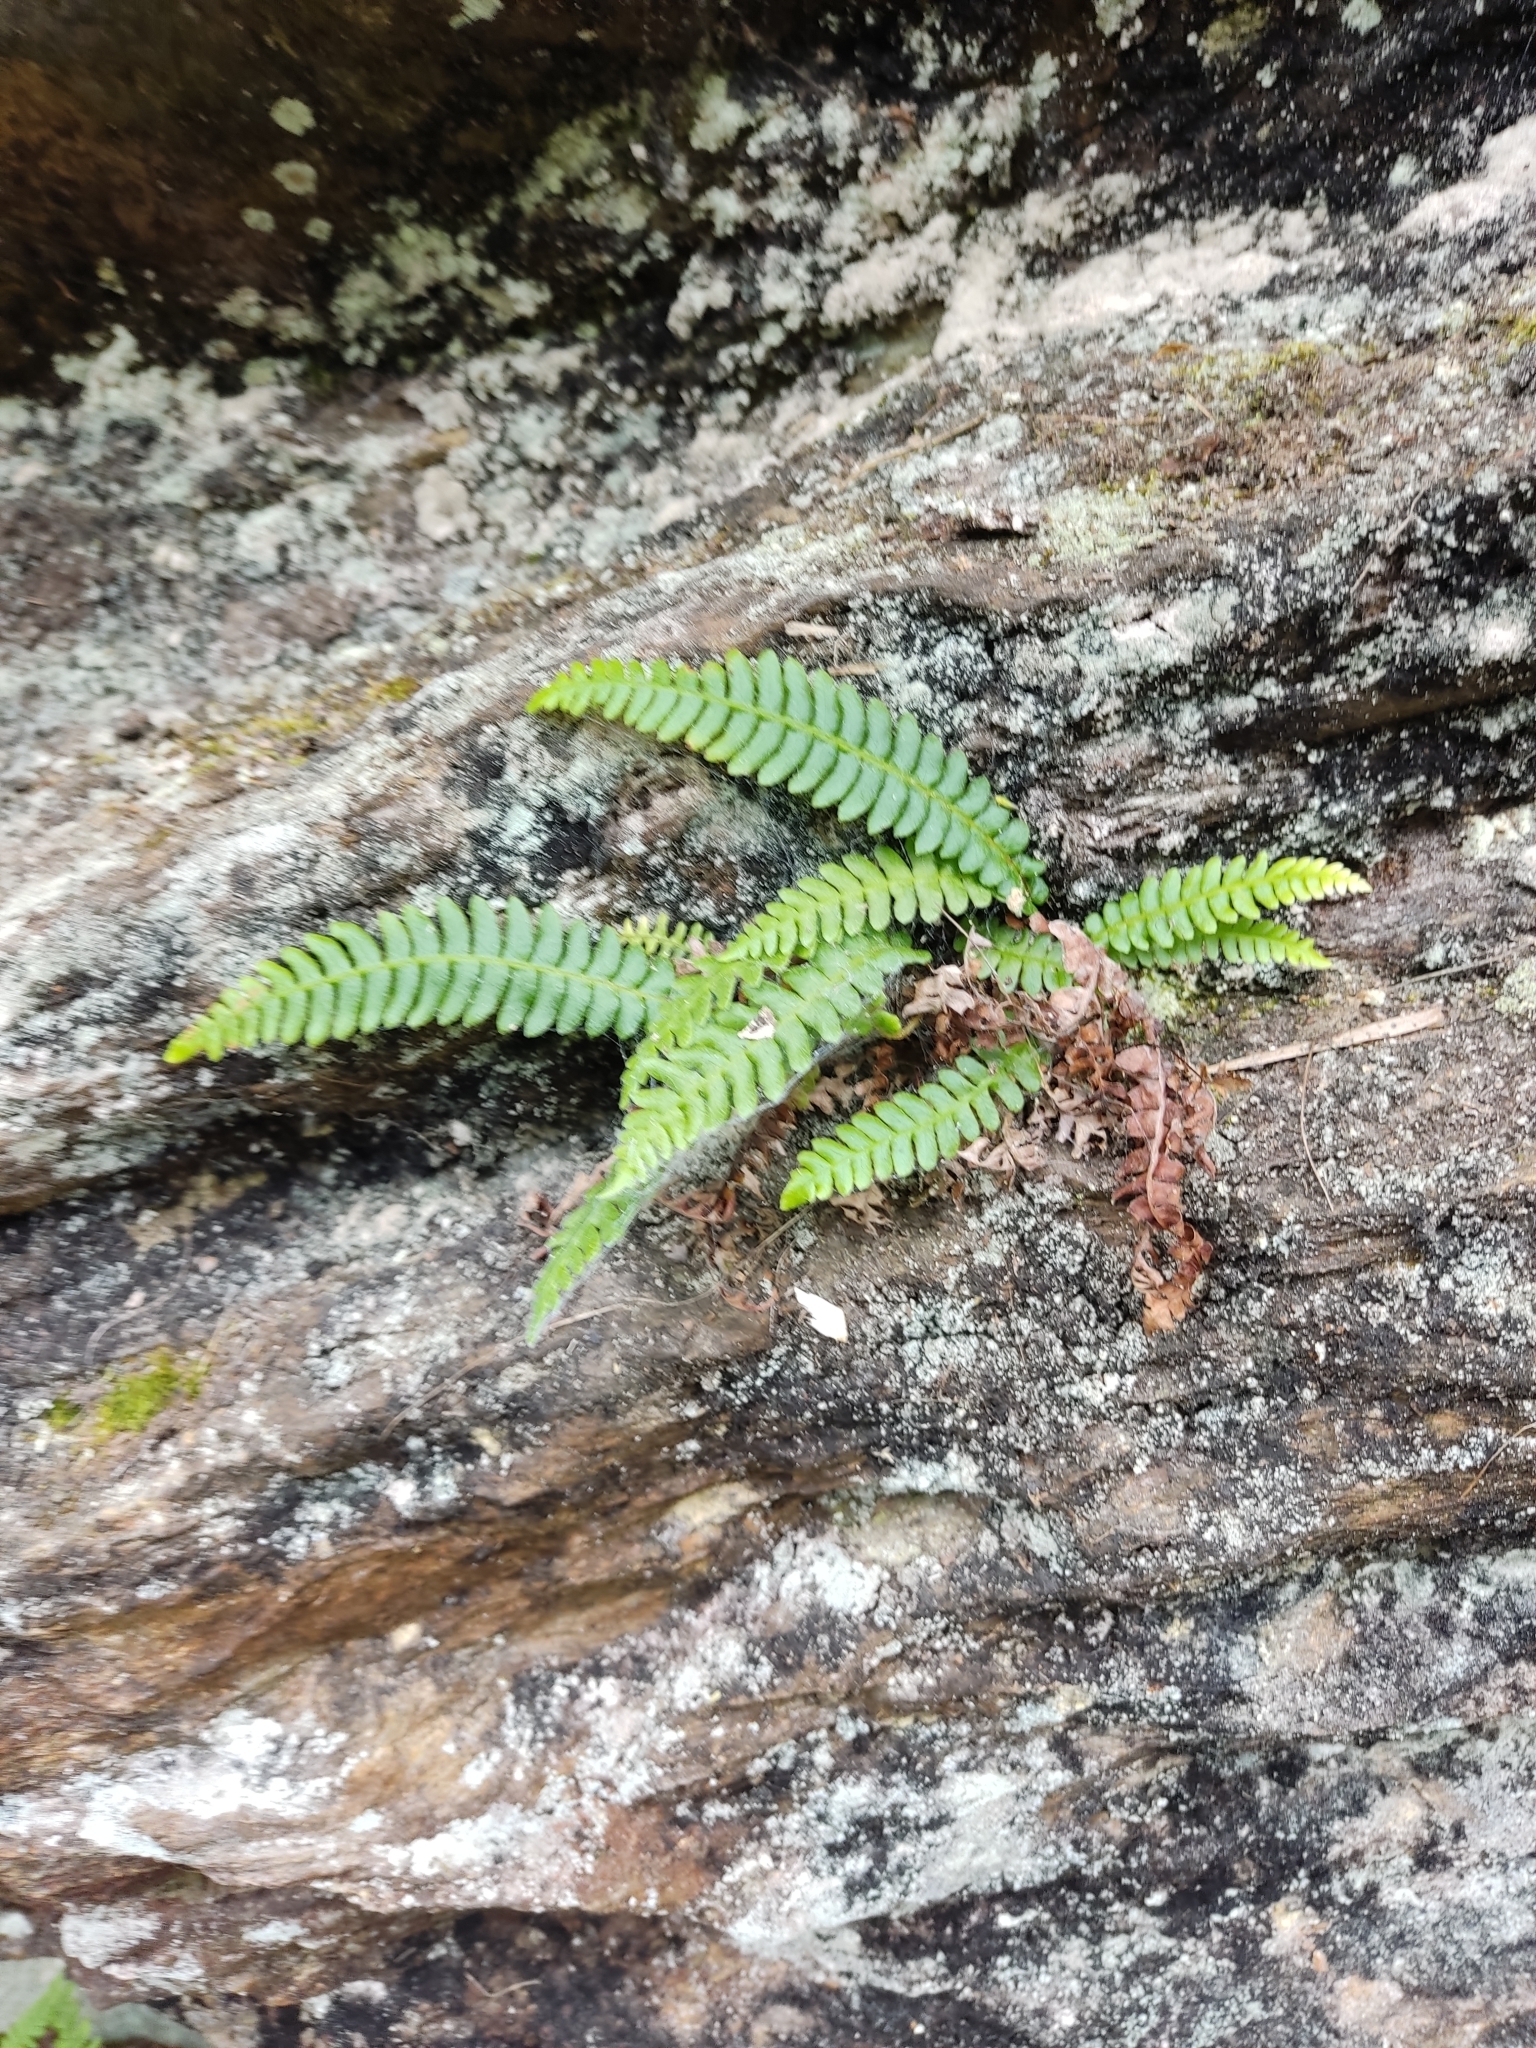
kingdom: Plantae
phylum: Tracheophyta
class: Polypodiopsida
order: Polypodiales
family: Blechnaceae
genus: Struthiopteris
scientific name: Struthiopteris spicant
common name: Deer fern
